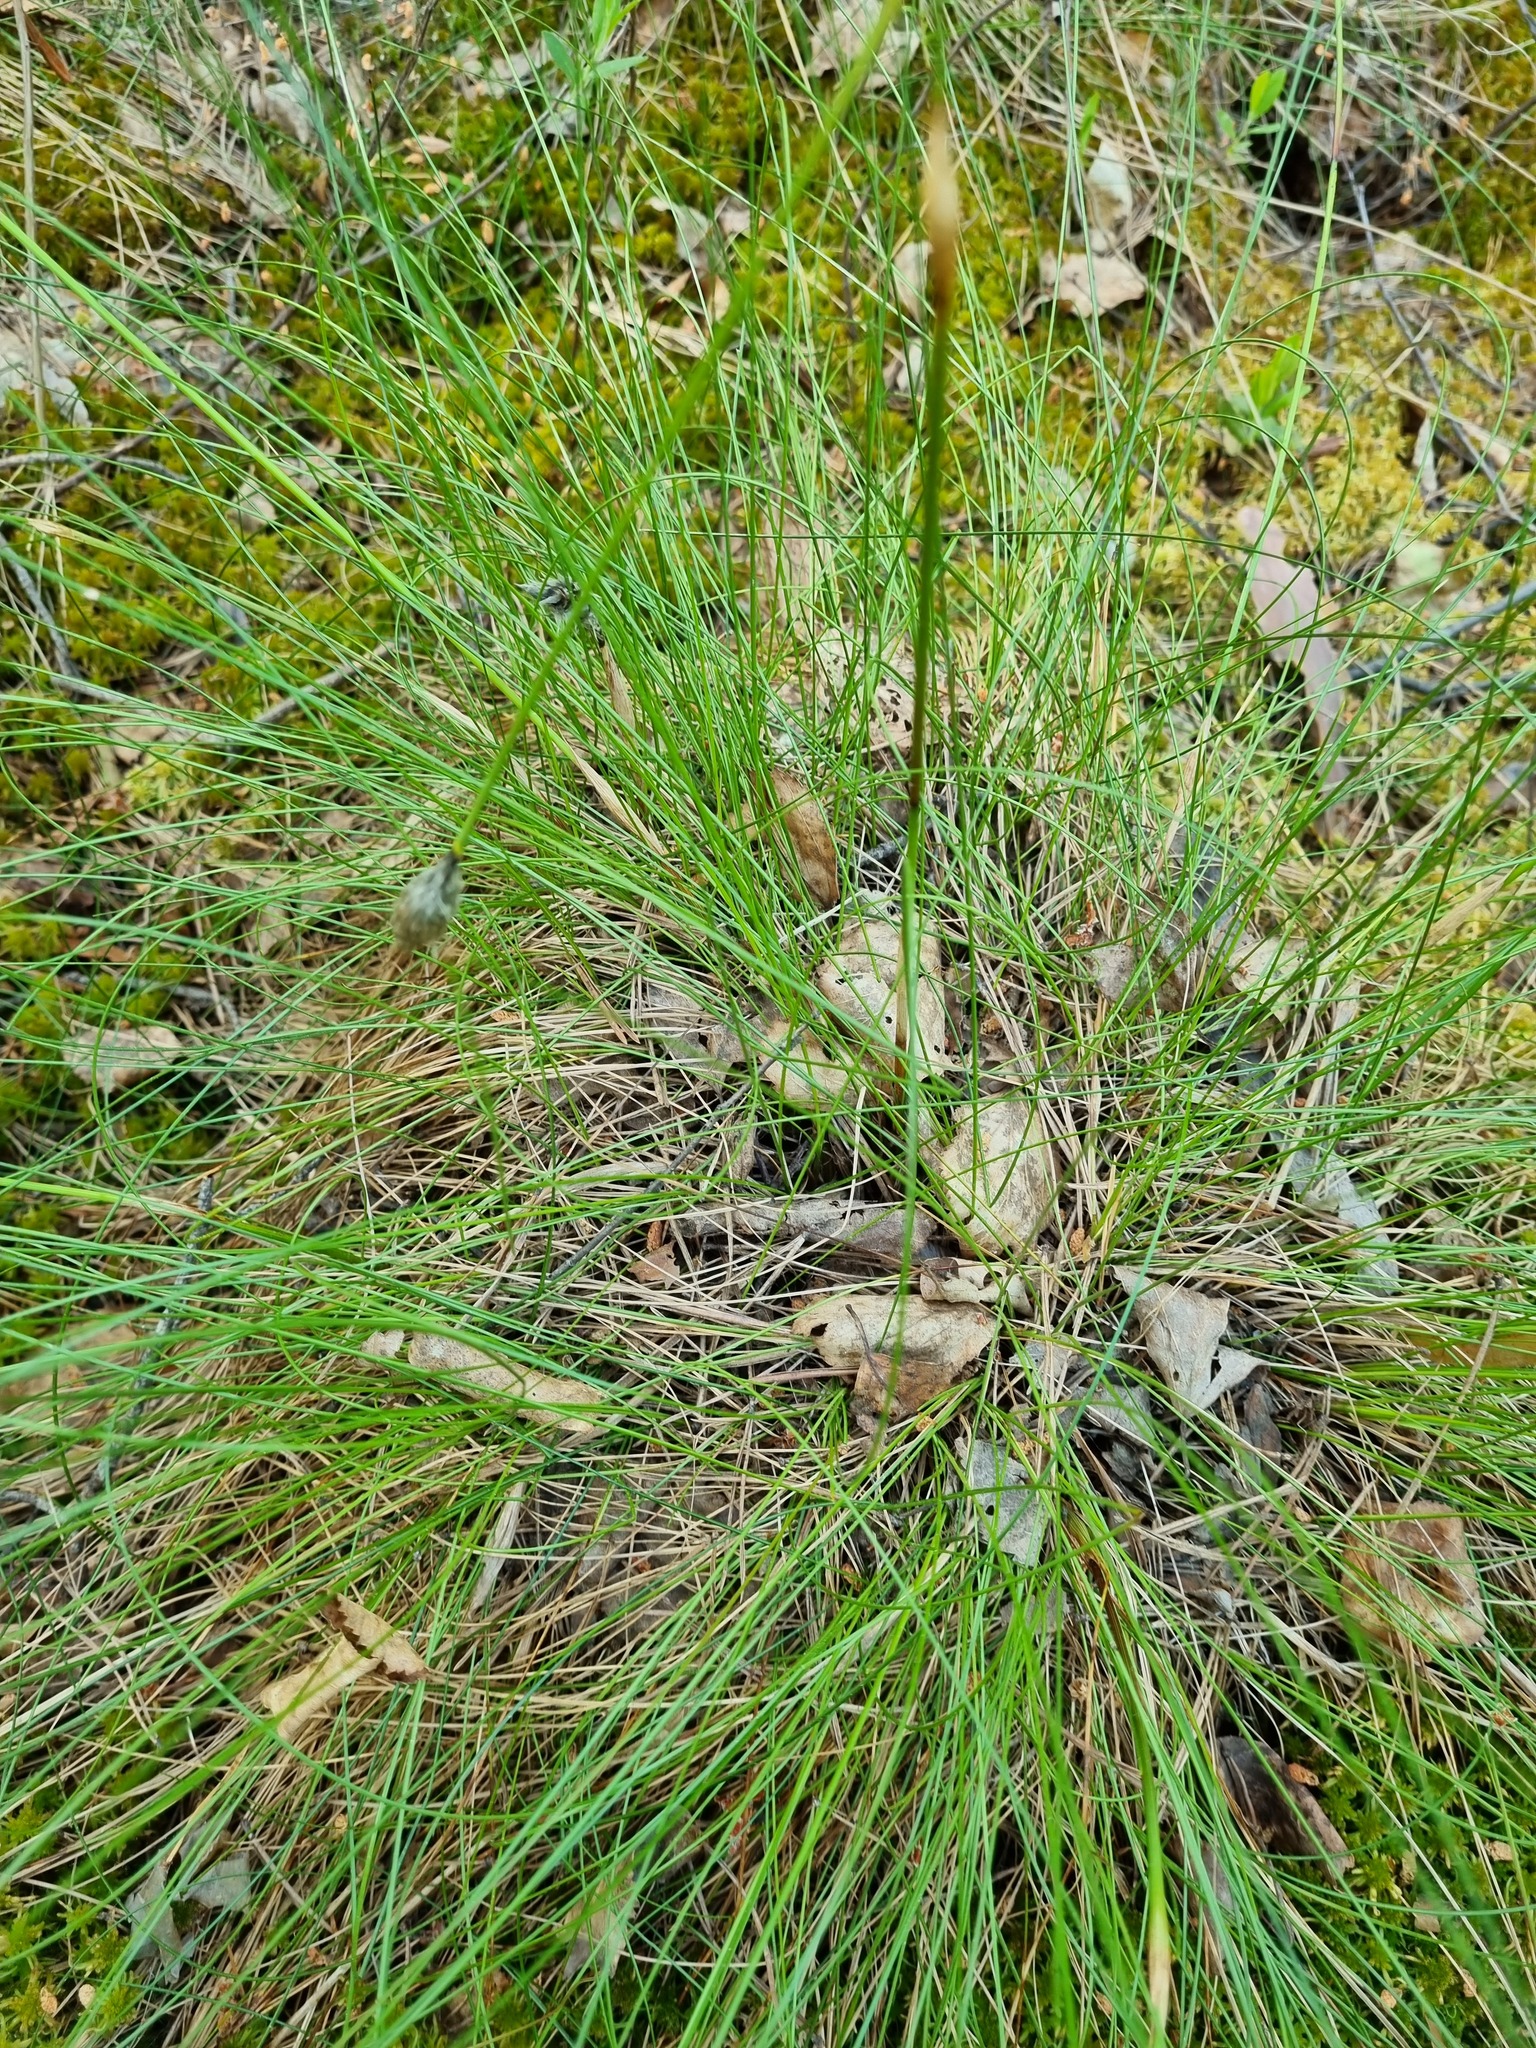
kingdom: Plantae
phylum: Tracheophyta
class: Liliopsida
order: Poales
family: Cyperaceae
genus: Eriophorum
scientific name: Eriophorum vaginatum
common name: Hare's-tail cottongrass
